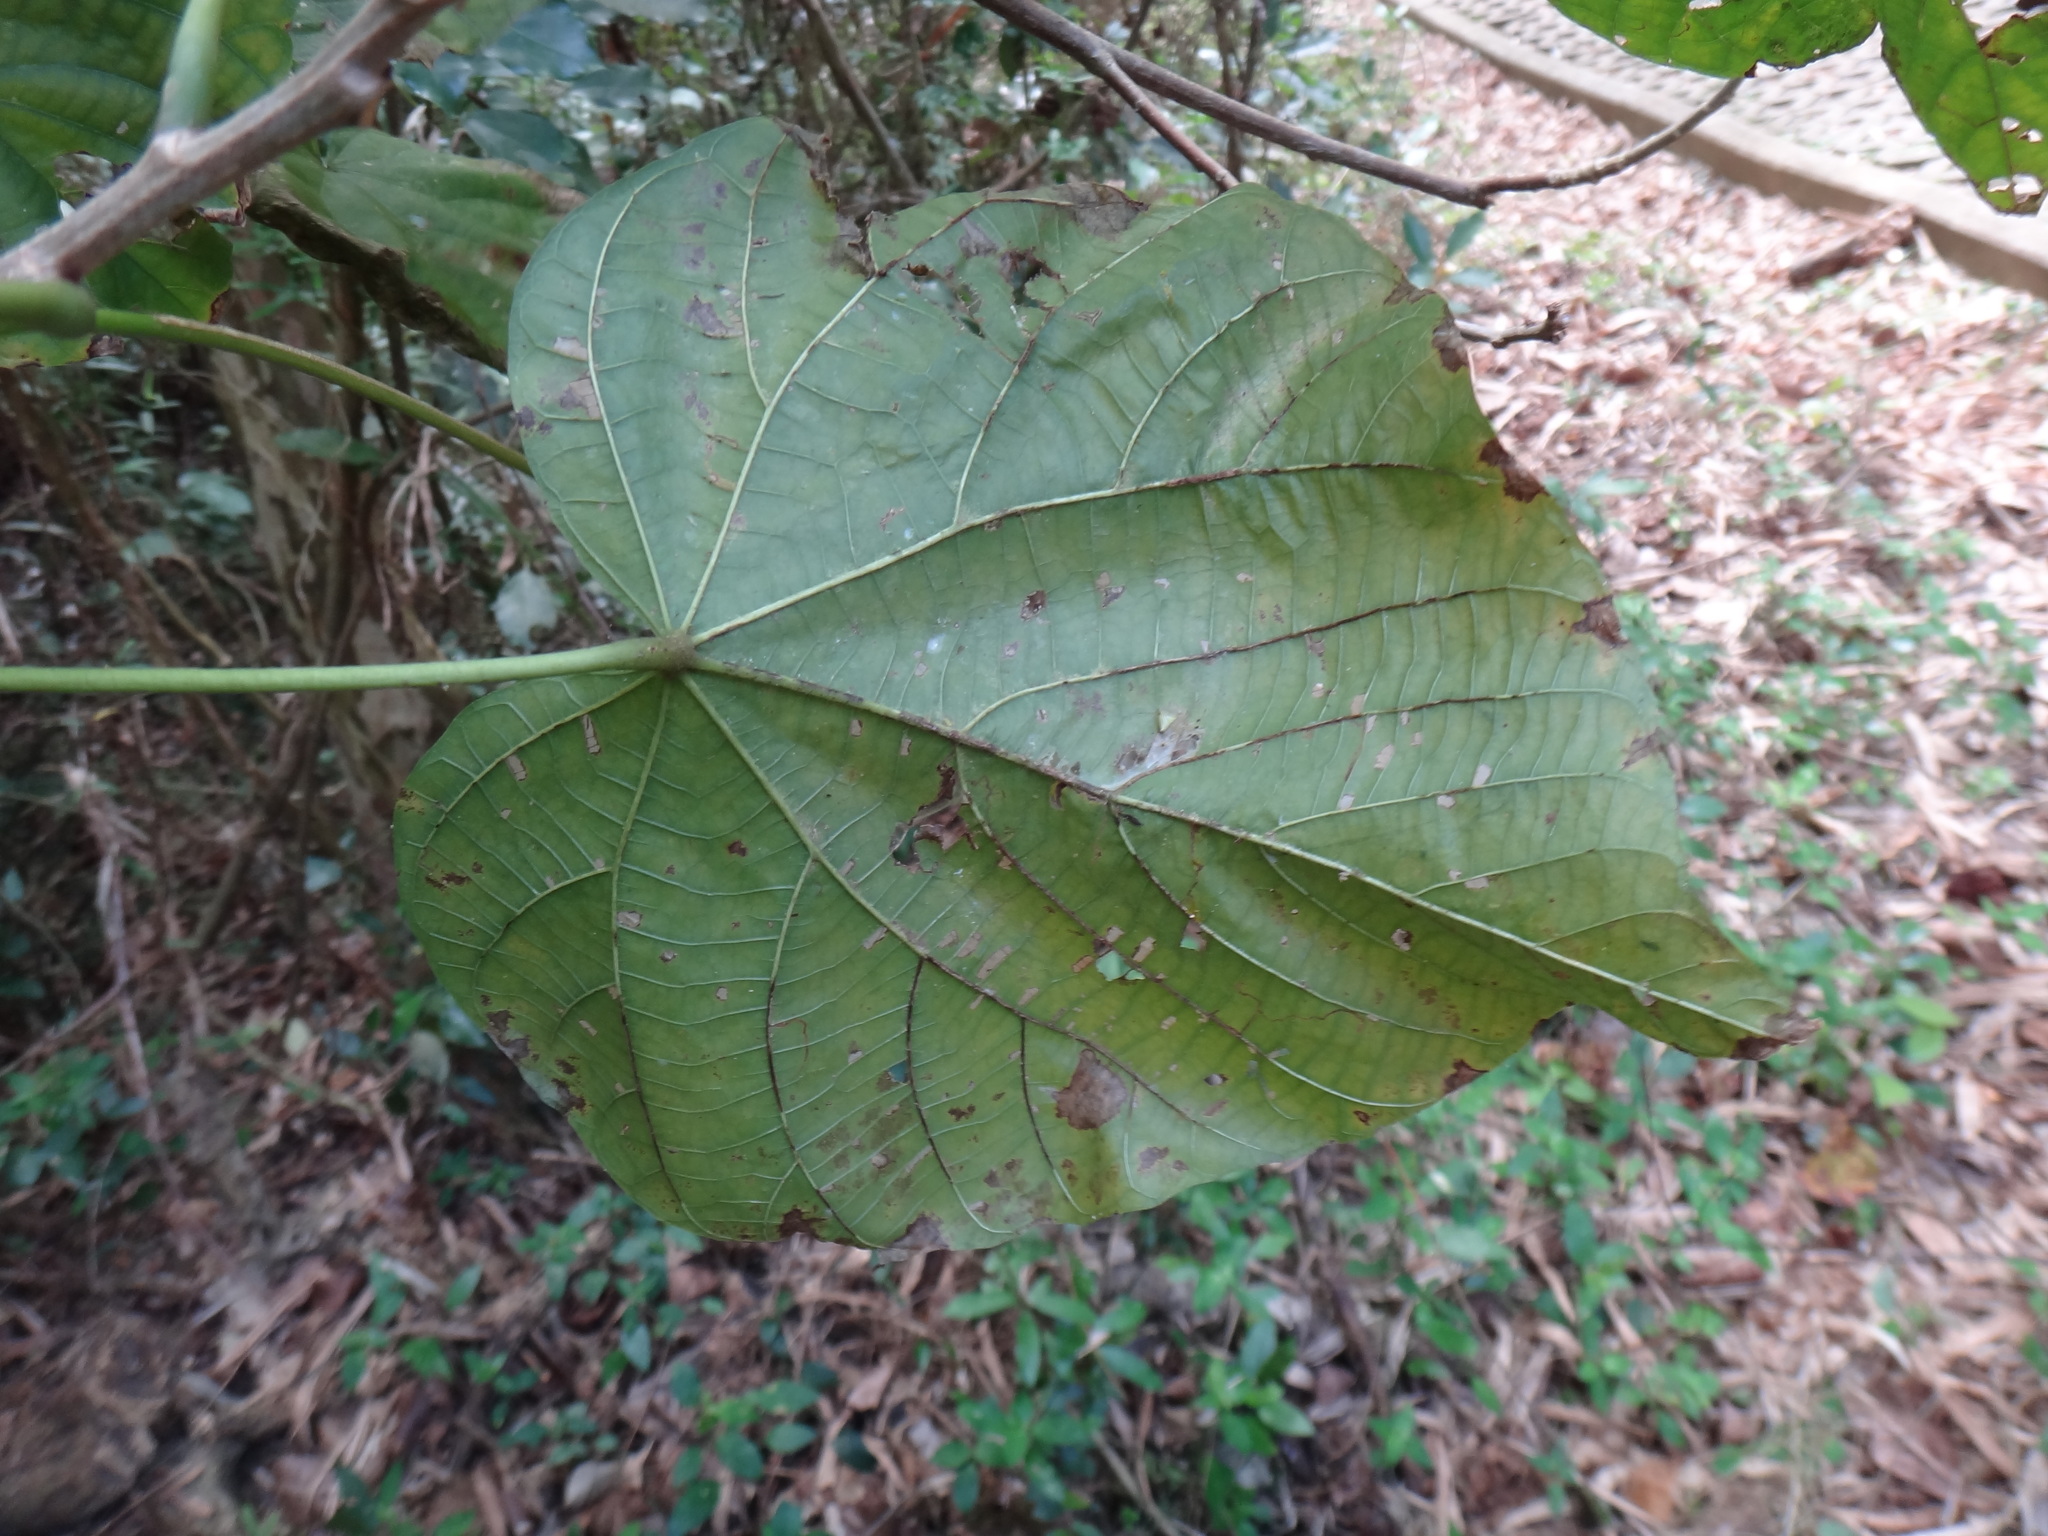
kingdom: Plantae
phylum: Tracheophyta
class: Magnoliopsida
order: Malvales
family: Malvaceae
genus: Kleinhovia
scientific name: Kleinhovia hospita
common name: Guest-tree
